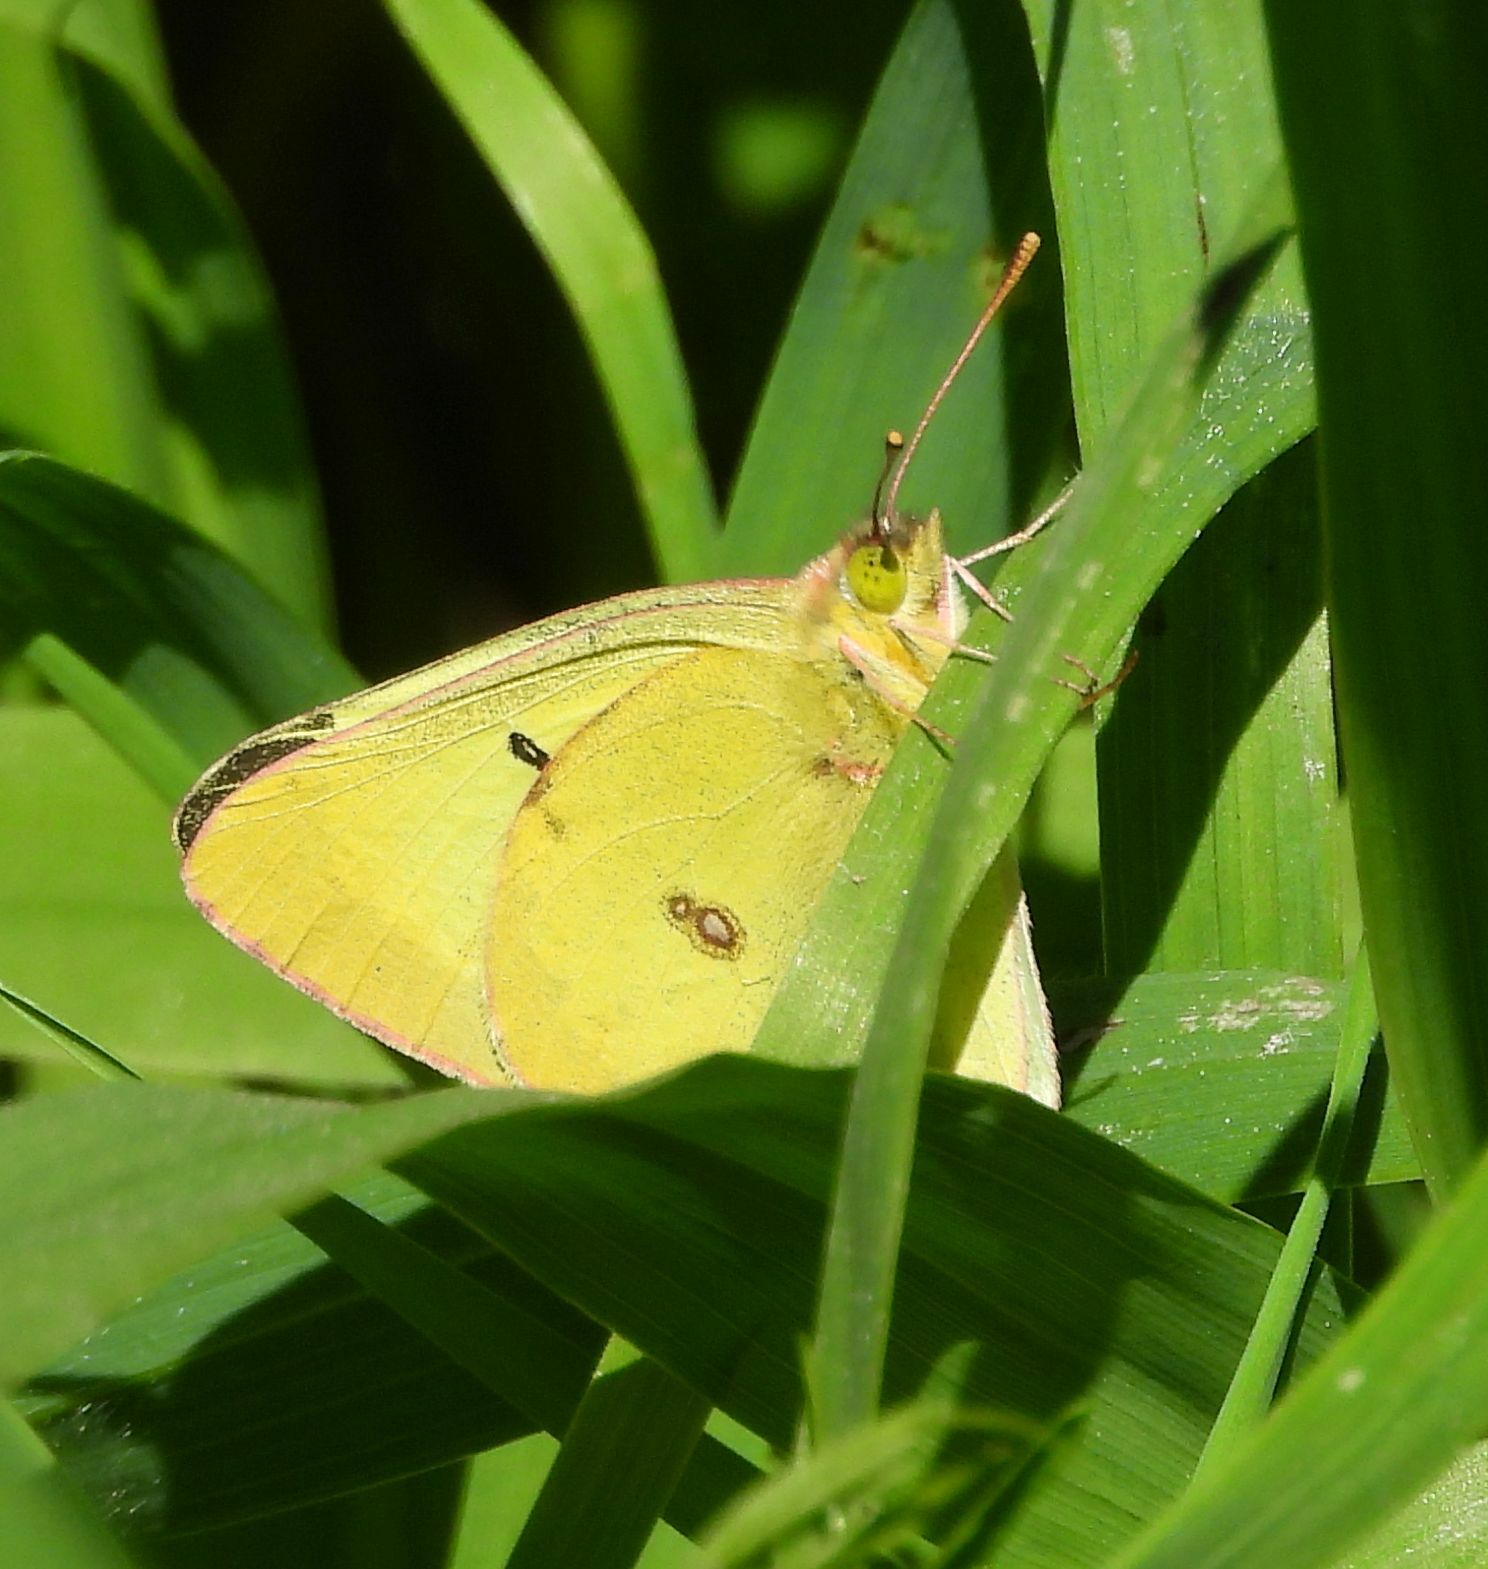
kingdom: Animalia
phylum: Arthropoda
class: Insecta
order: Lepidoptera
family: Pieridae
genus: Colias
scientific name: Colias philodice
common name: Clouded sulphur
